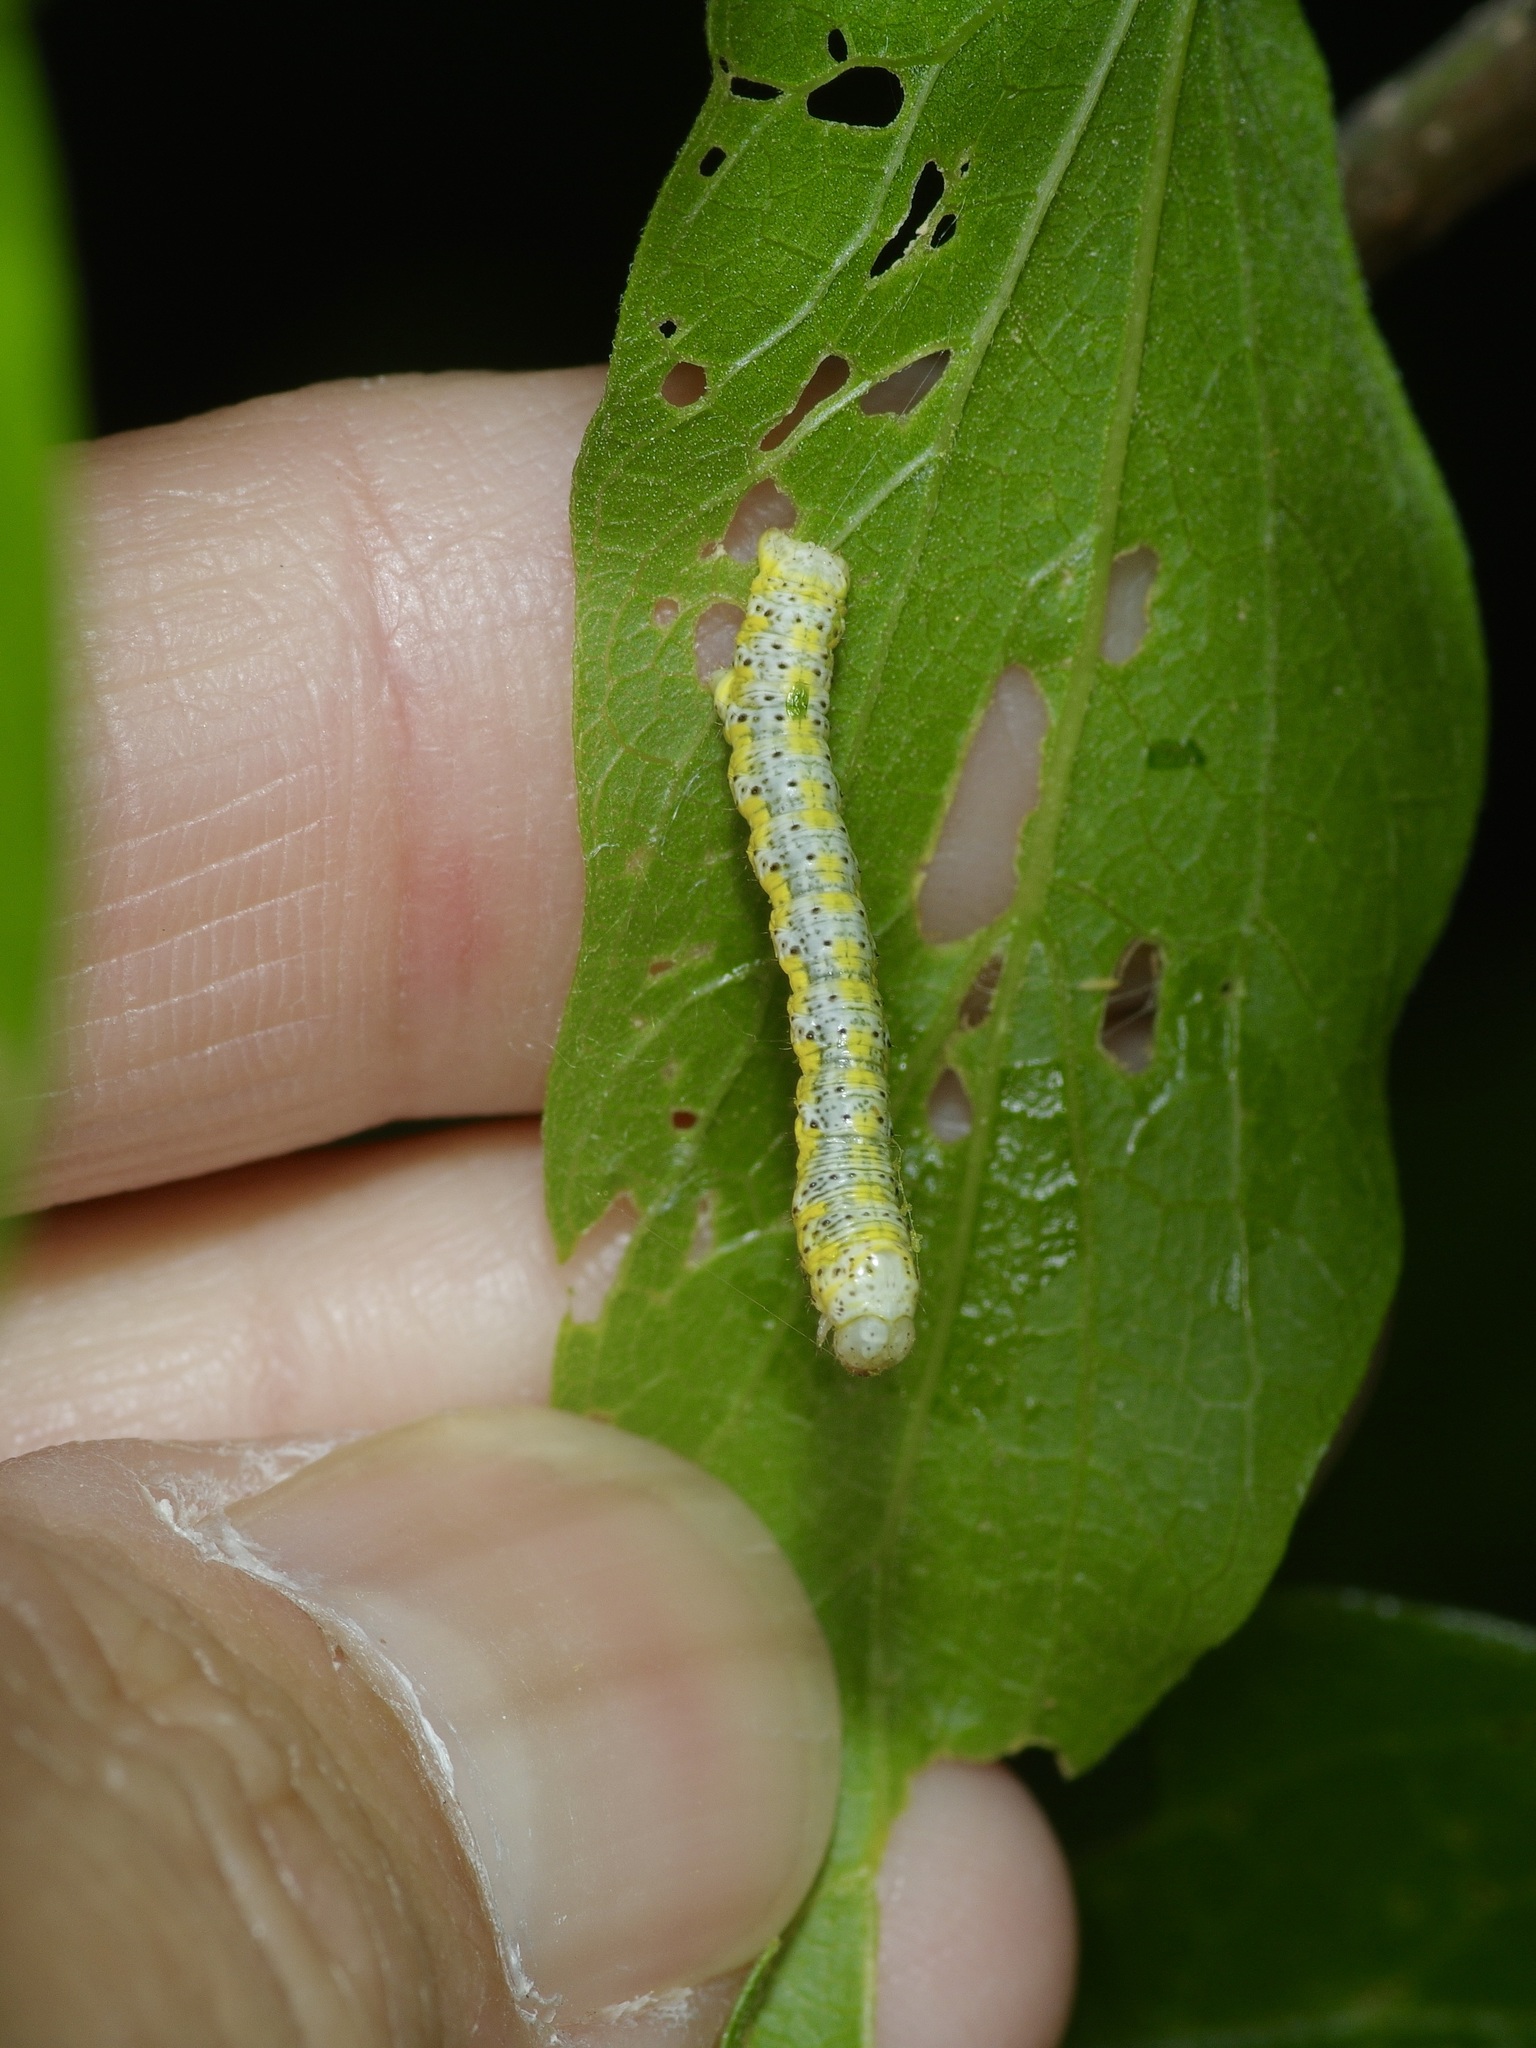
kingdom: Animalia
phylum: Arthropoda
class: Insecta
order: Lepidoptera
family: Geometridae
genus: Isturgia
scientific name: Isturgia dislocaria
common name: Pale-viened enconista
